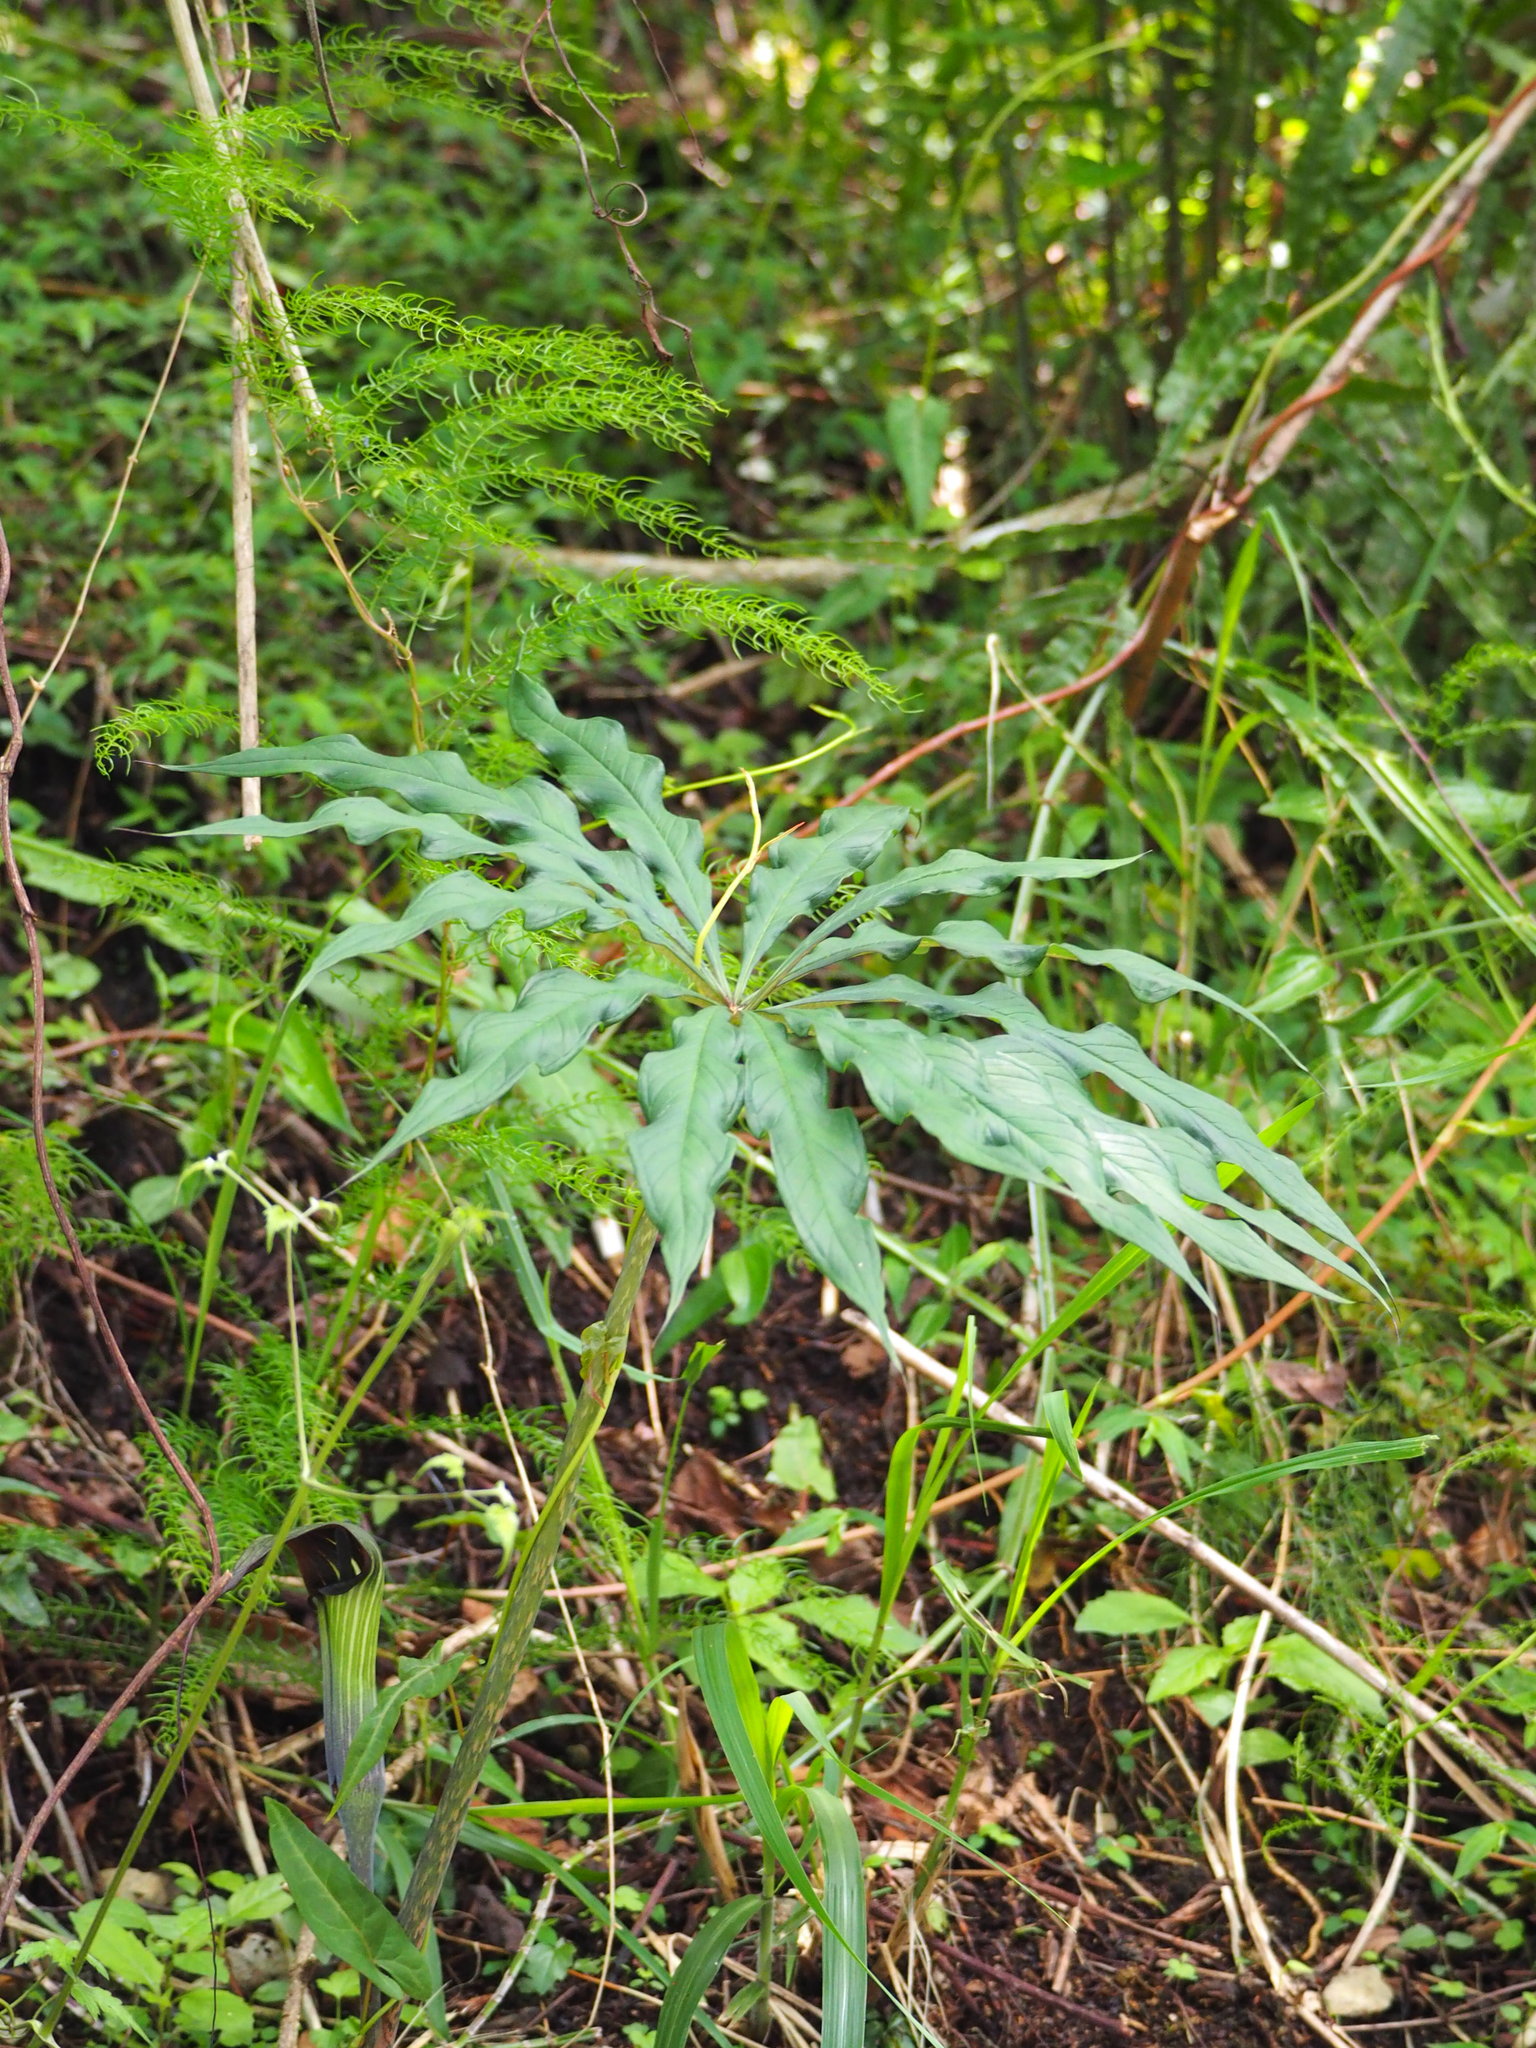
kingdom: Plantae
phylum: Tracheophyta
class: Liliopsida
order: Alismatales
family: Araceae
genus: Arisaema
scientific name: Arisaema consanguineum
